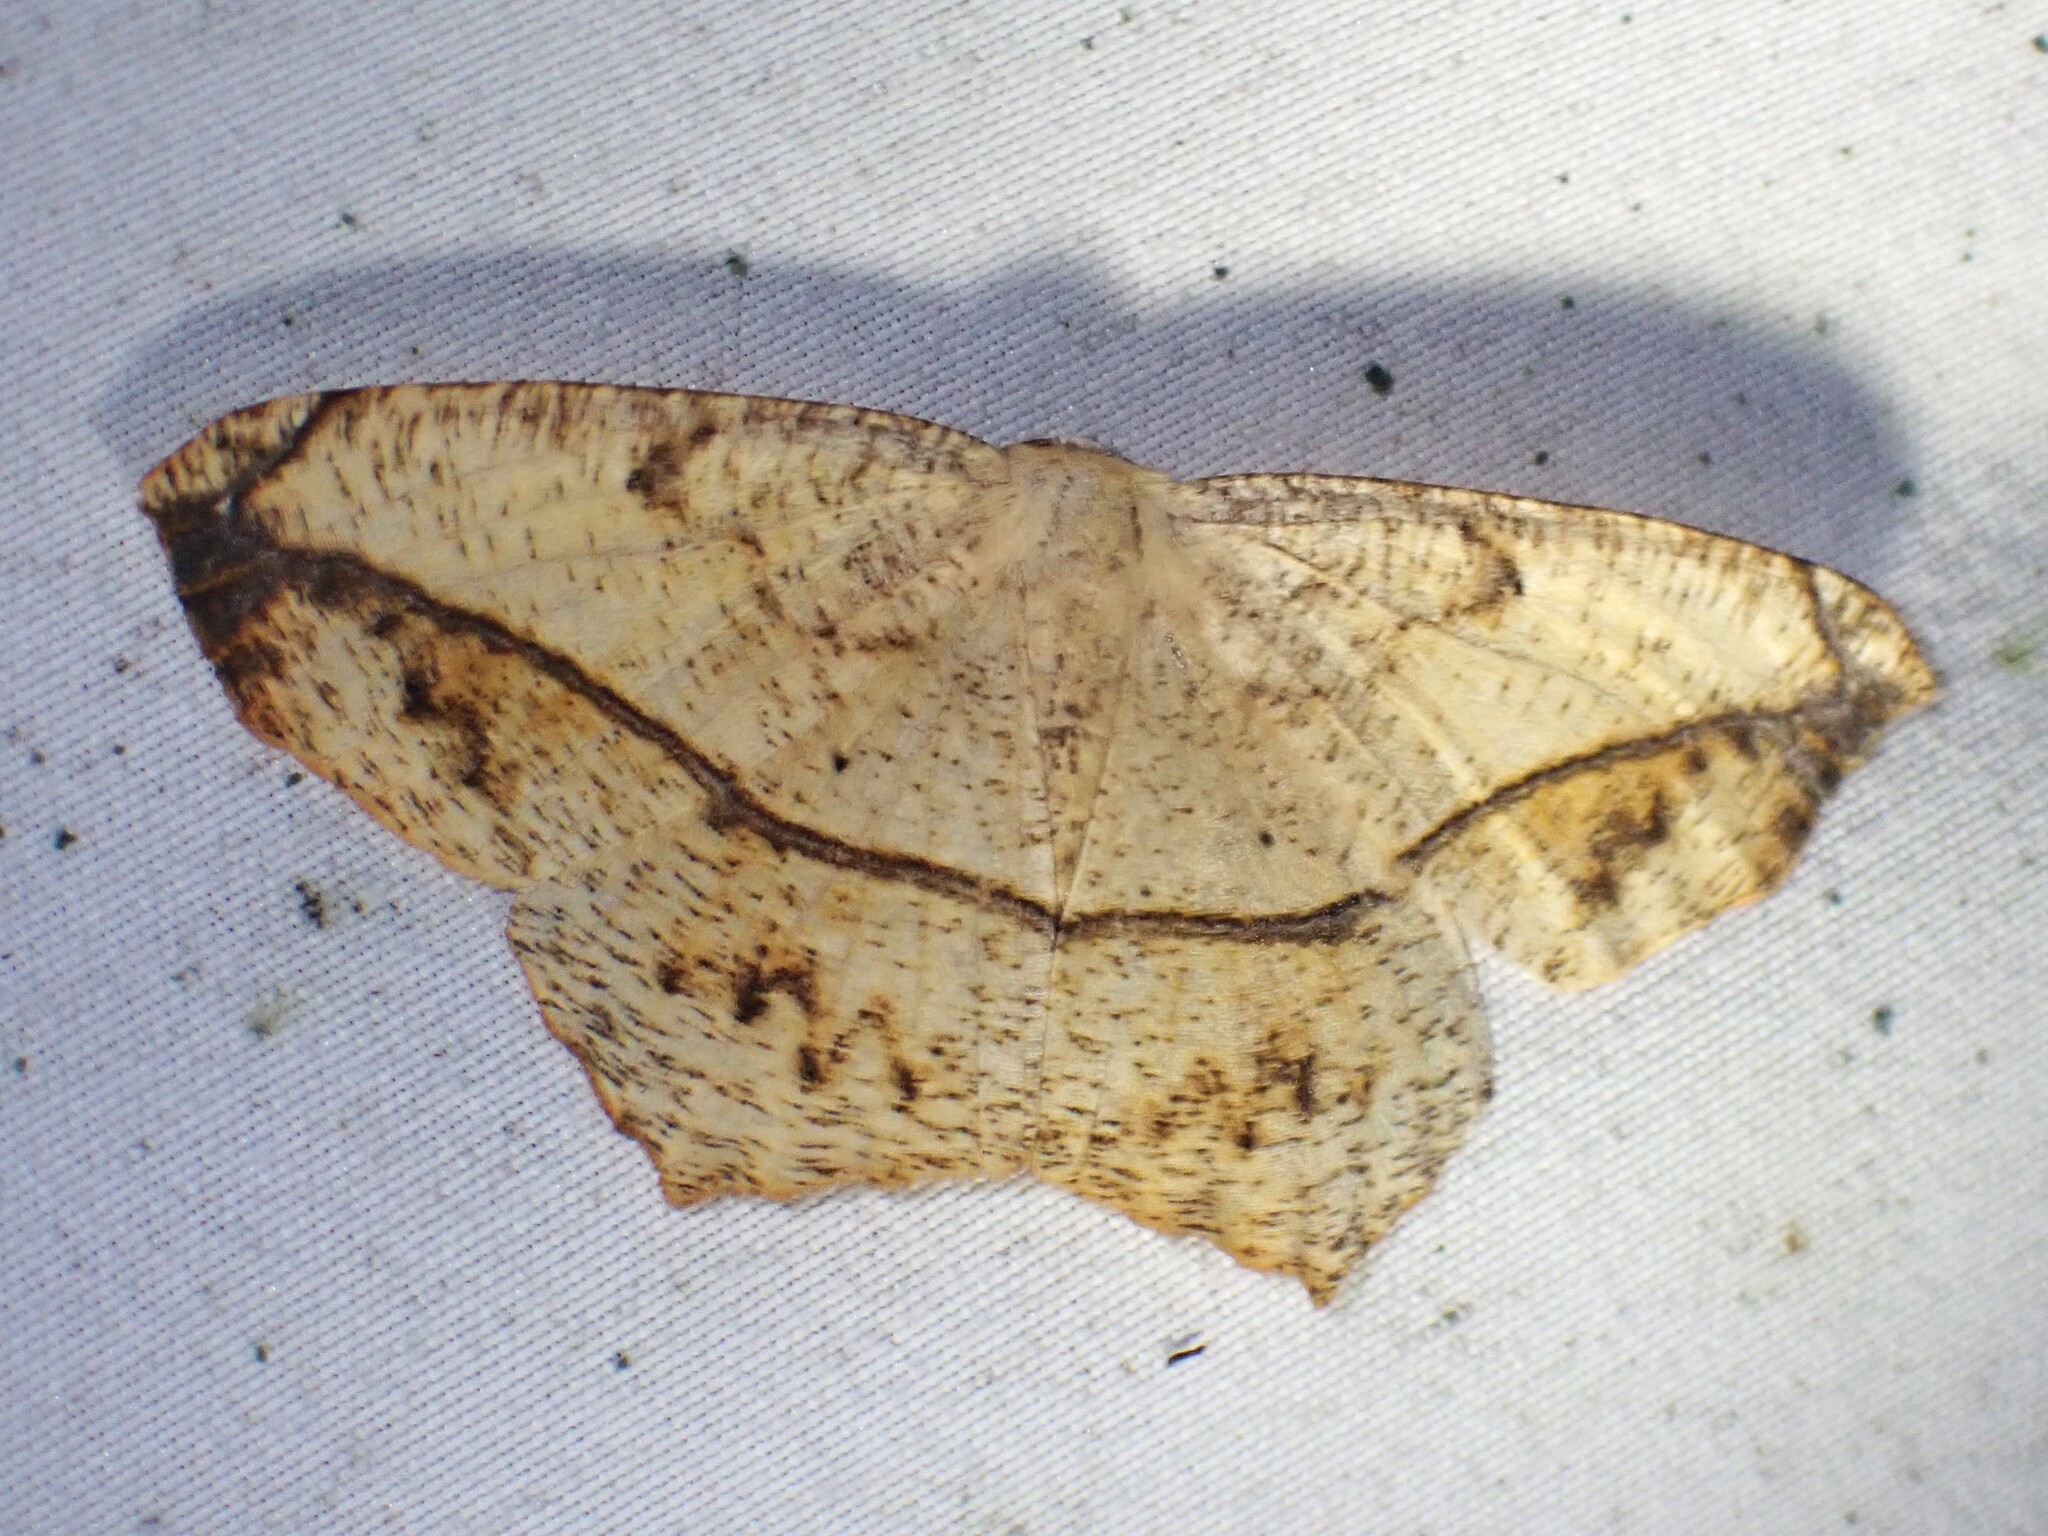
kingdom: Animalia
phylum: Arthropoda
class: Insecta
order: Lepidoptera
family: Geometridae
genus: Prochoerodes
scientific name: Prochoerodes lineola
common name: Large maple spanworm
